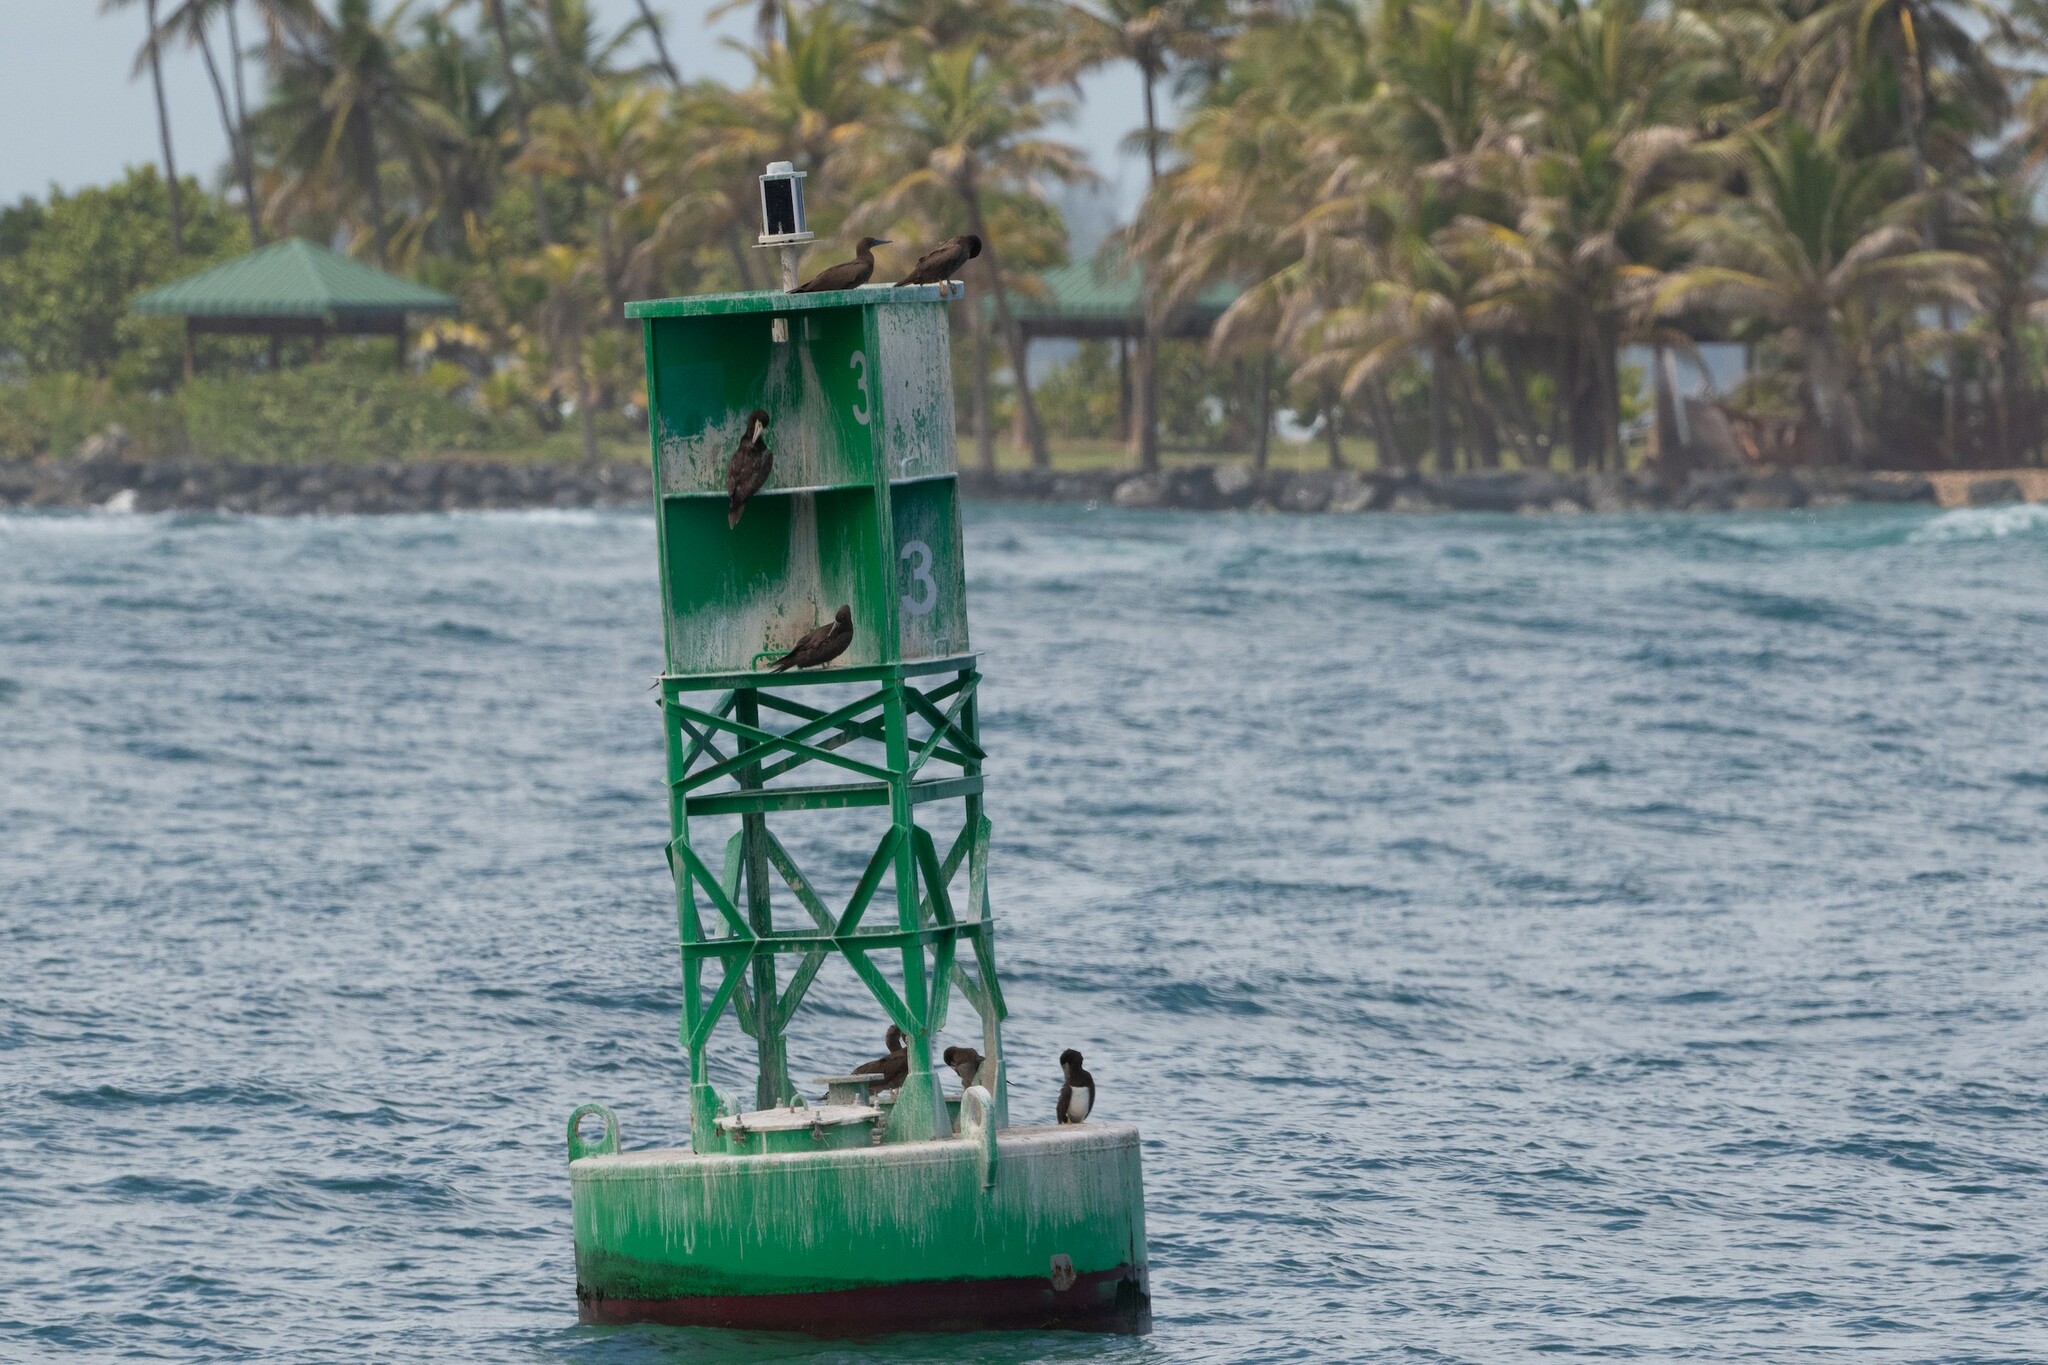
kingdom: Animalia
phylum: Chordata
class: Aves
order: Suliformes
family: Sulidae
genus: Sula
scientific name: Sula leucogaster
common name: Brown booby
